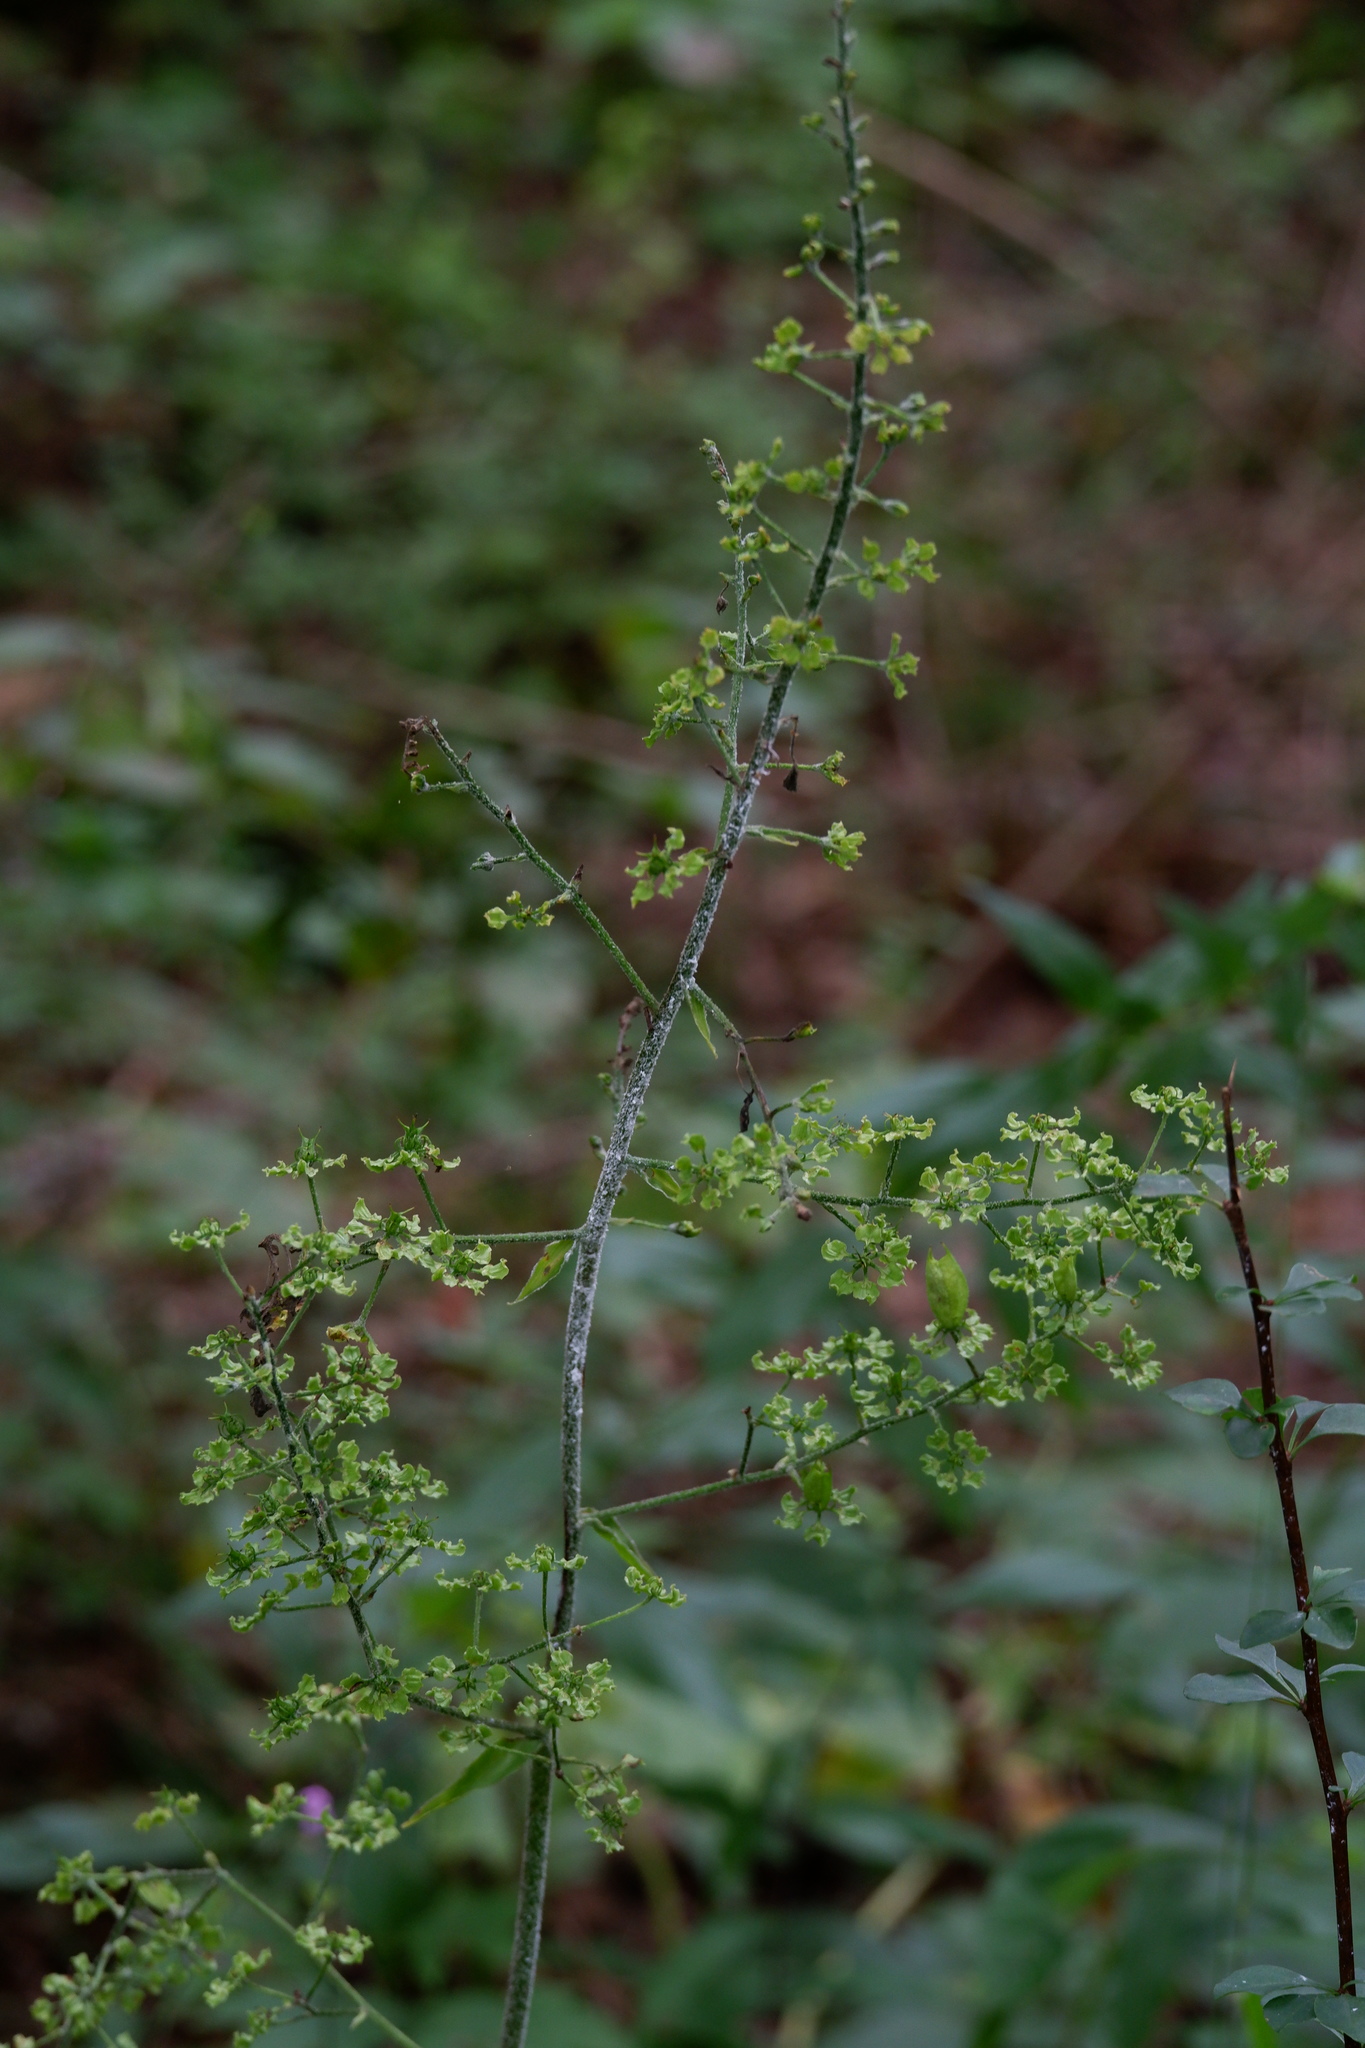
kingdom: Plantae
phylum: Tracheophyta
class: Liliopsida
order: Liliales
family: Melanthiaceae
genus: Veratrum
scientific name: Veratrum hybridum
